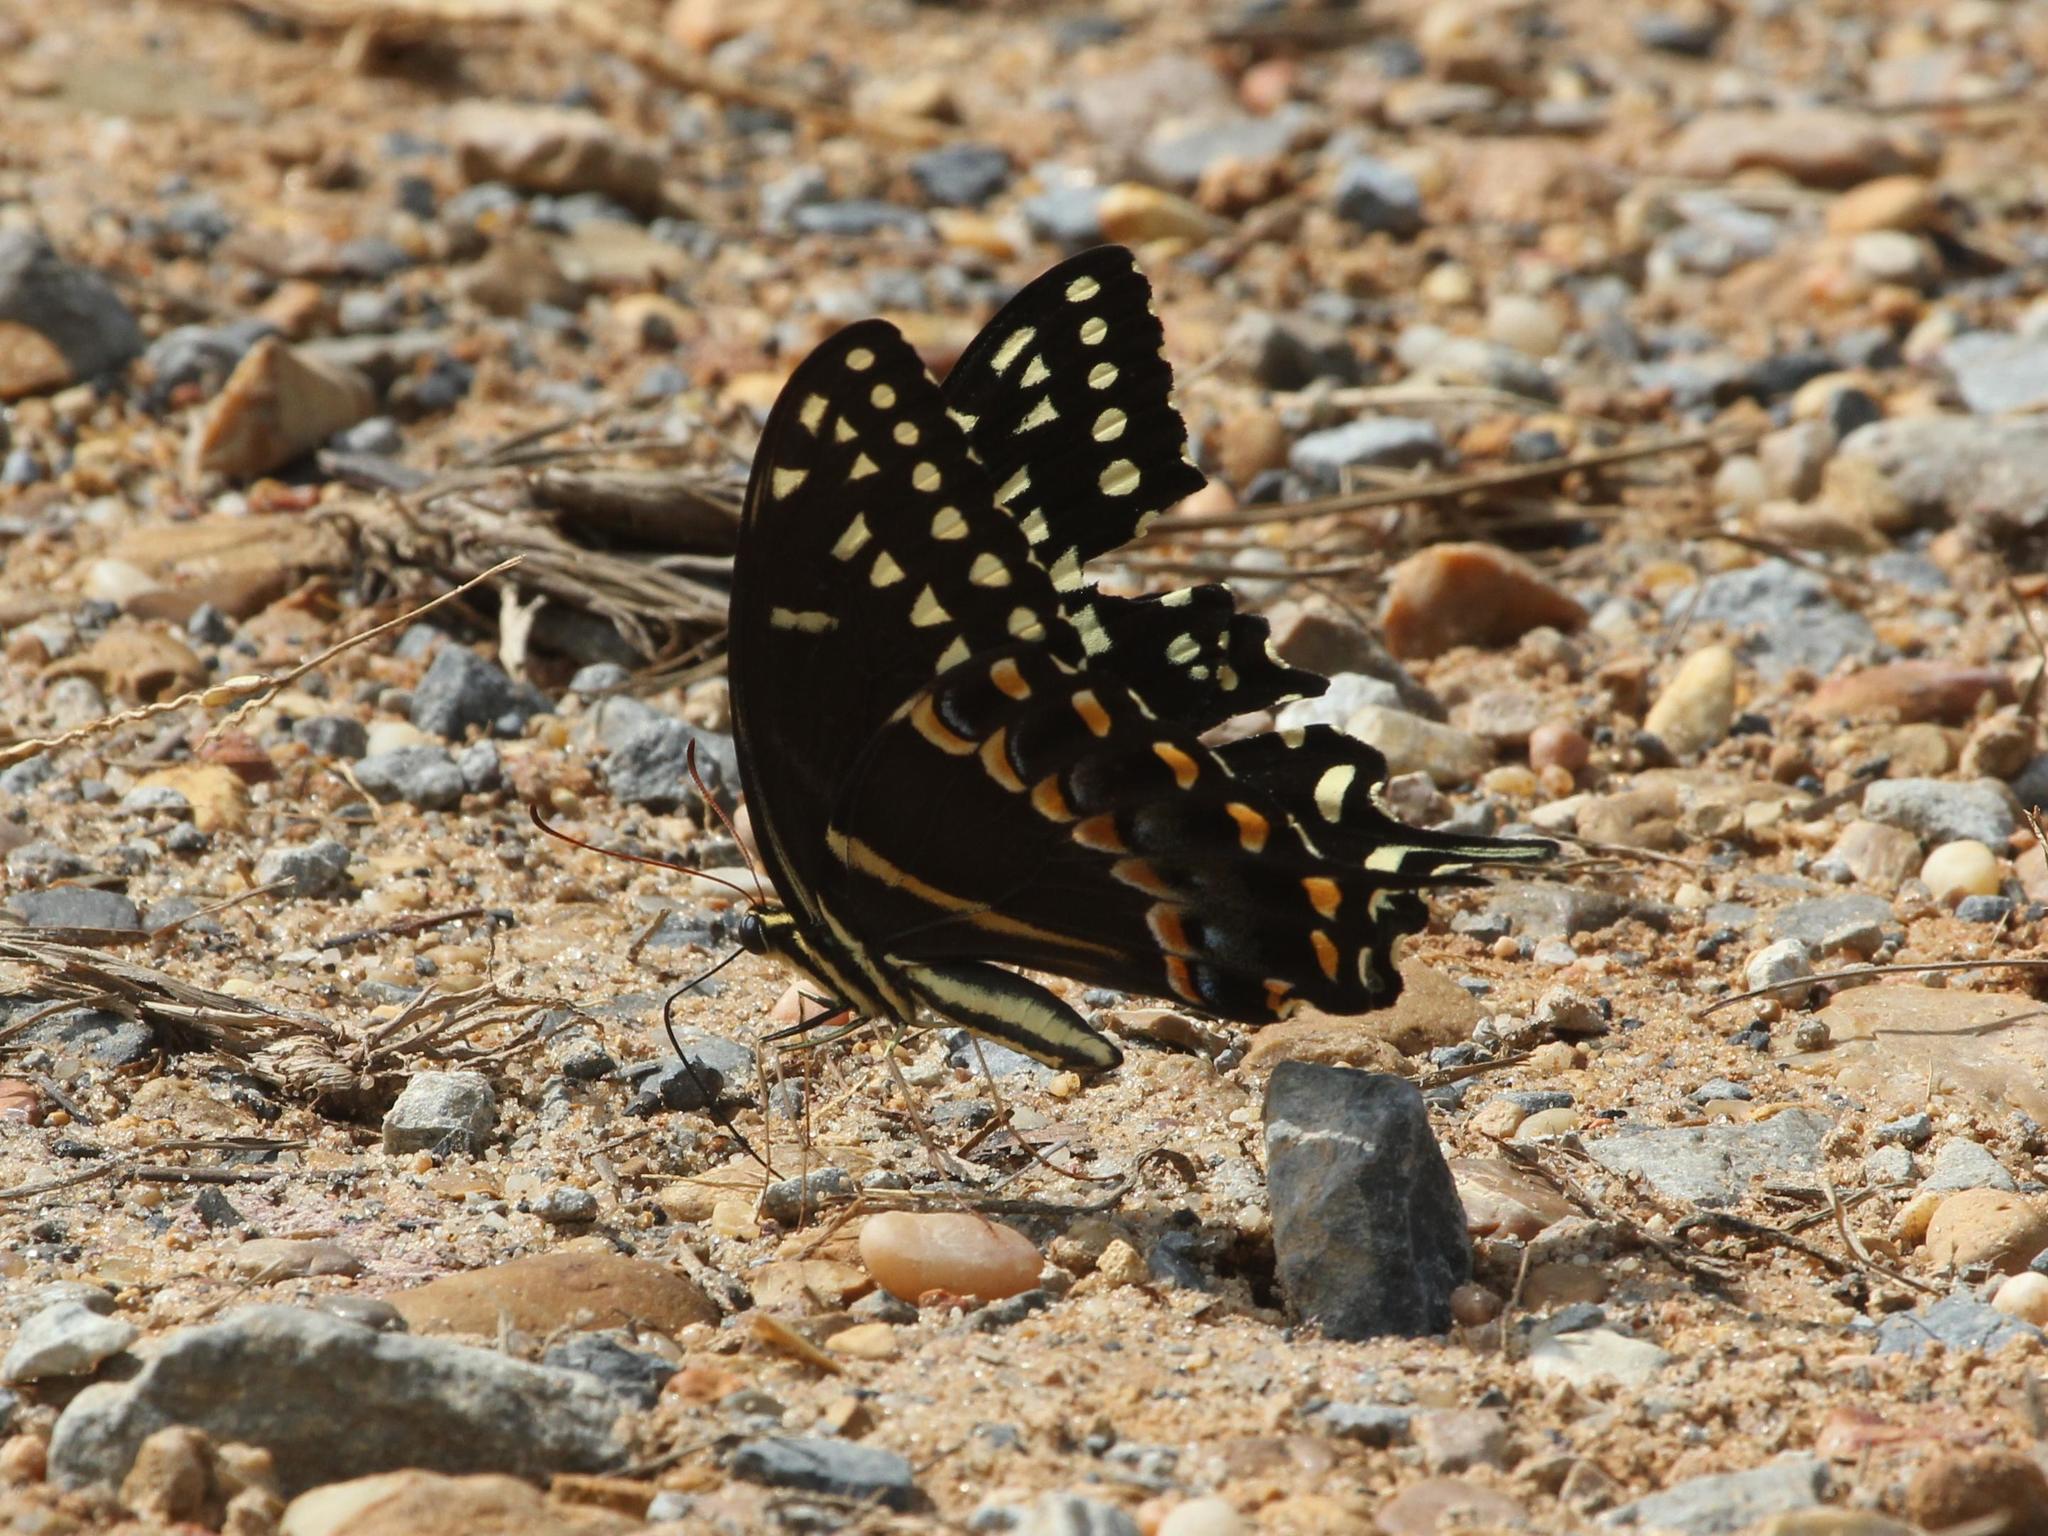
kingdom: Animalia
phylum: Arthropoda
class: Insecta
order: Lepidoptera
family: Papilionidae
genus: Papilio
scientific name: Papilio palamedes
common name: Palamedes swallowtail
